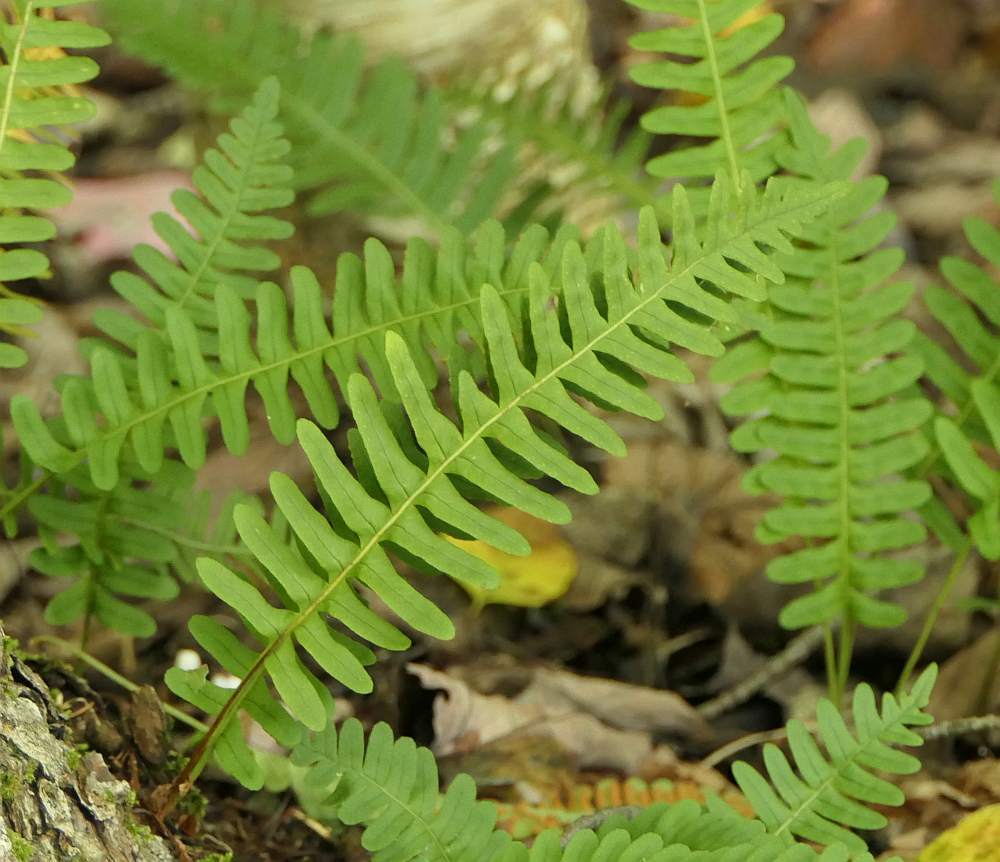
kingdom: Plantae
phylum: Tracheophyta
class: Polypodiopsida
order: Polypodiales
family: Polypodiaceae
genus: Polypodium
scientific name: Polypodium virginianum
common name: American wall fern
